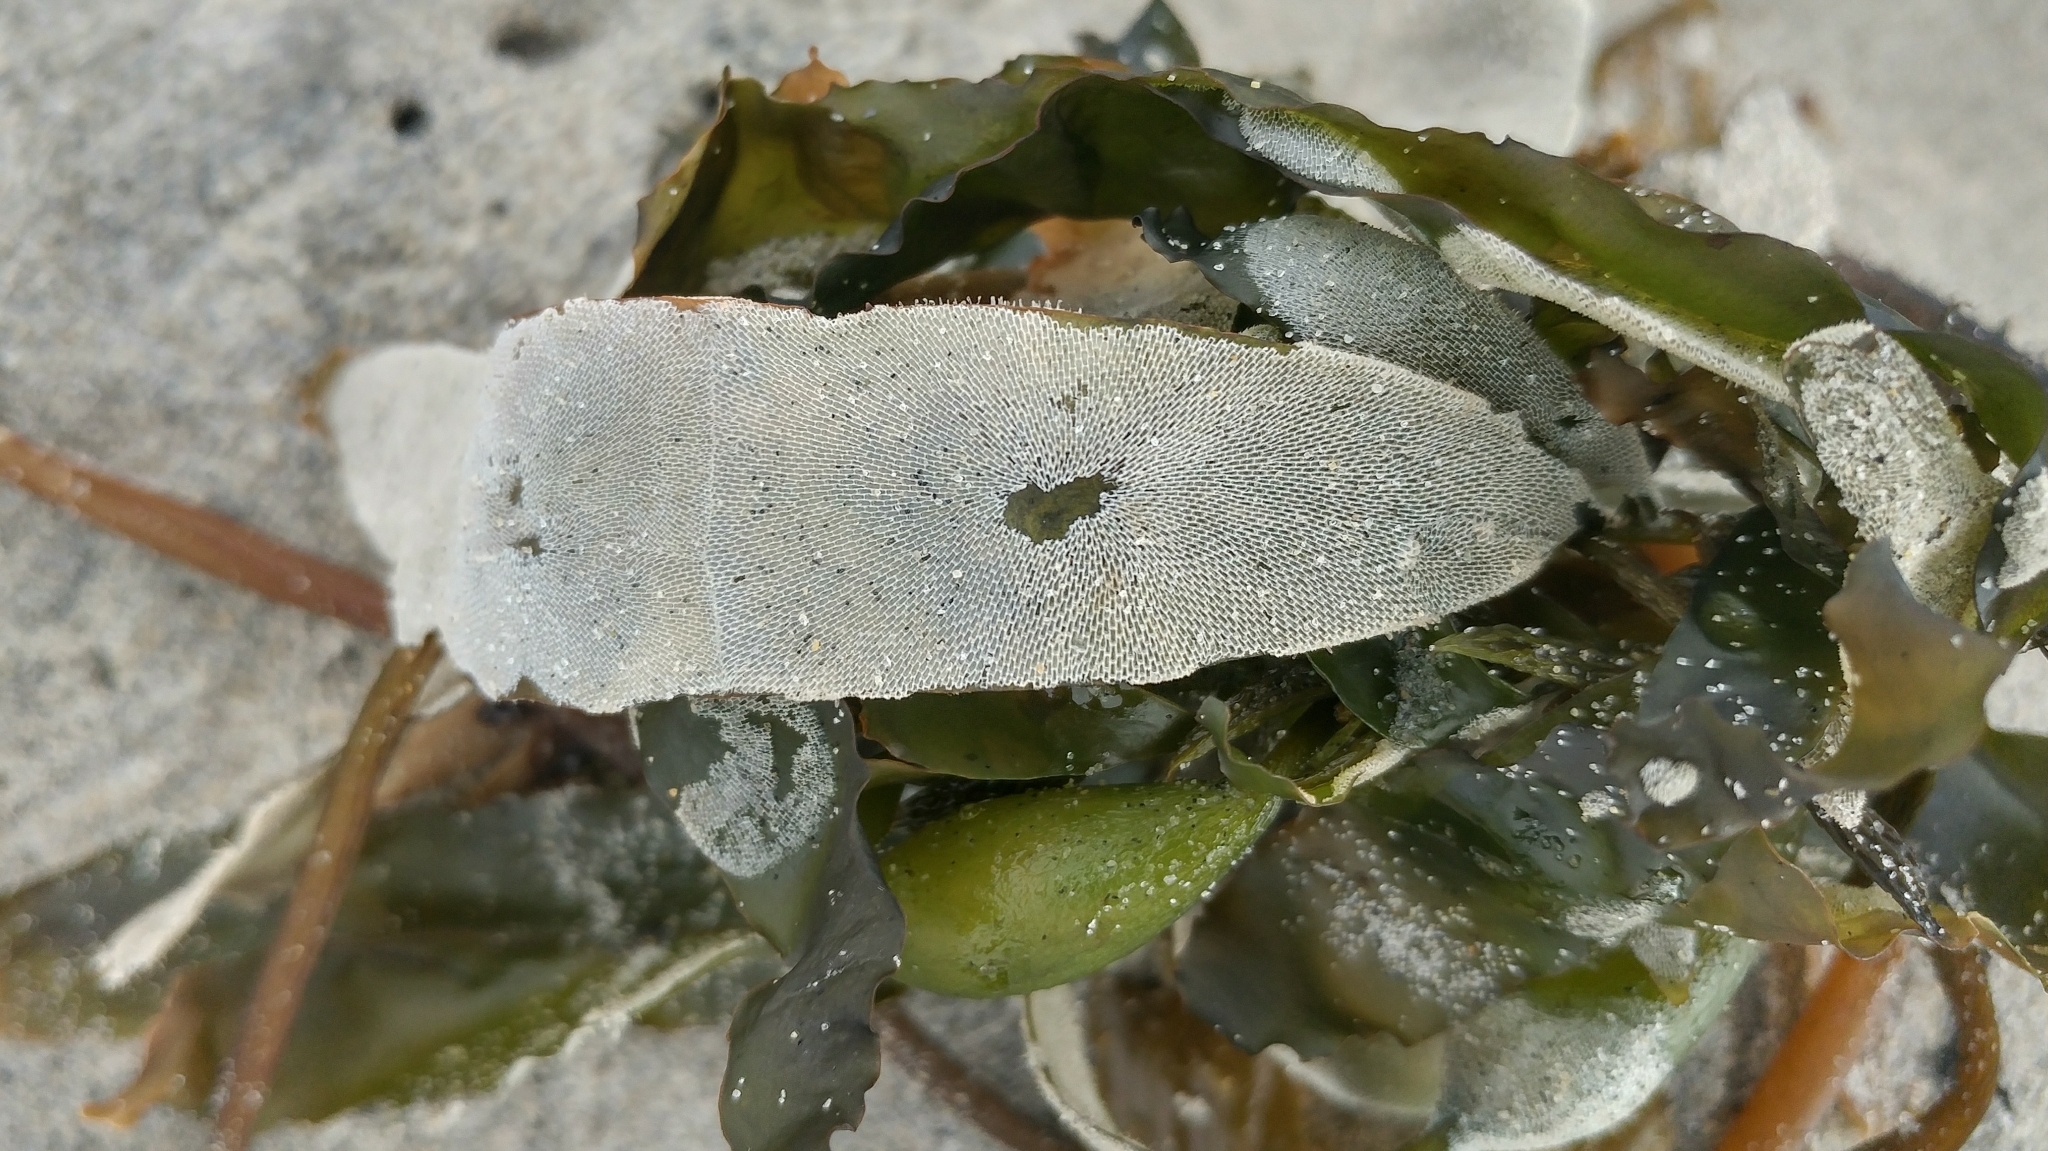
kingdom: Animalia
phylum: Bryozoa
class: Gymnolaemata
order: Cheilostomatida
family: Membraniporidae
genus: Membranipora
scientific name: Membranipora membranacea
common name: Sea mat
